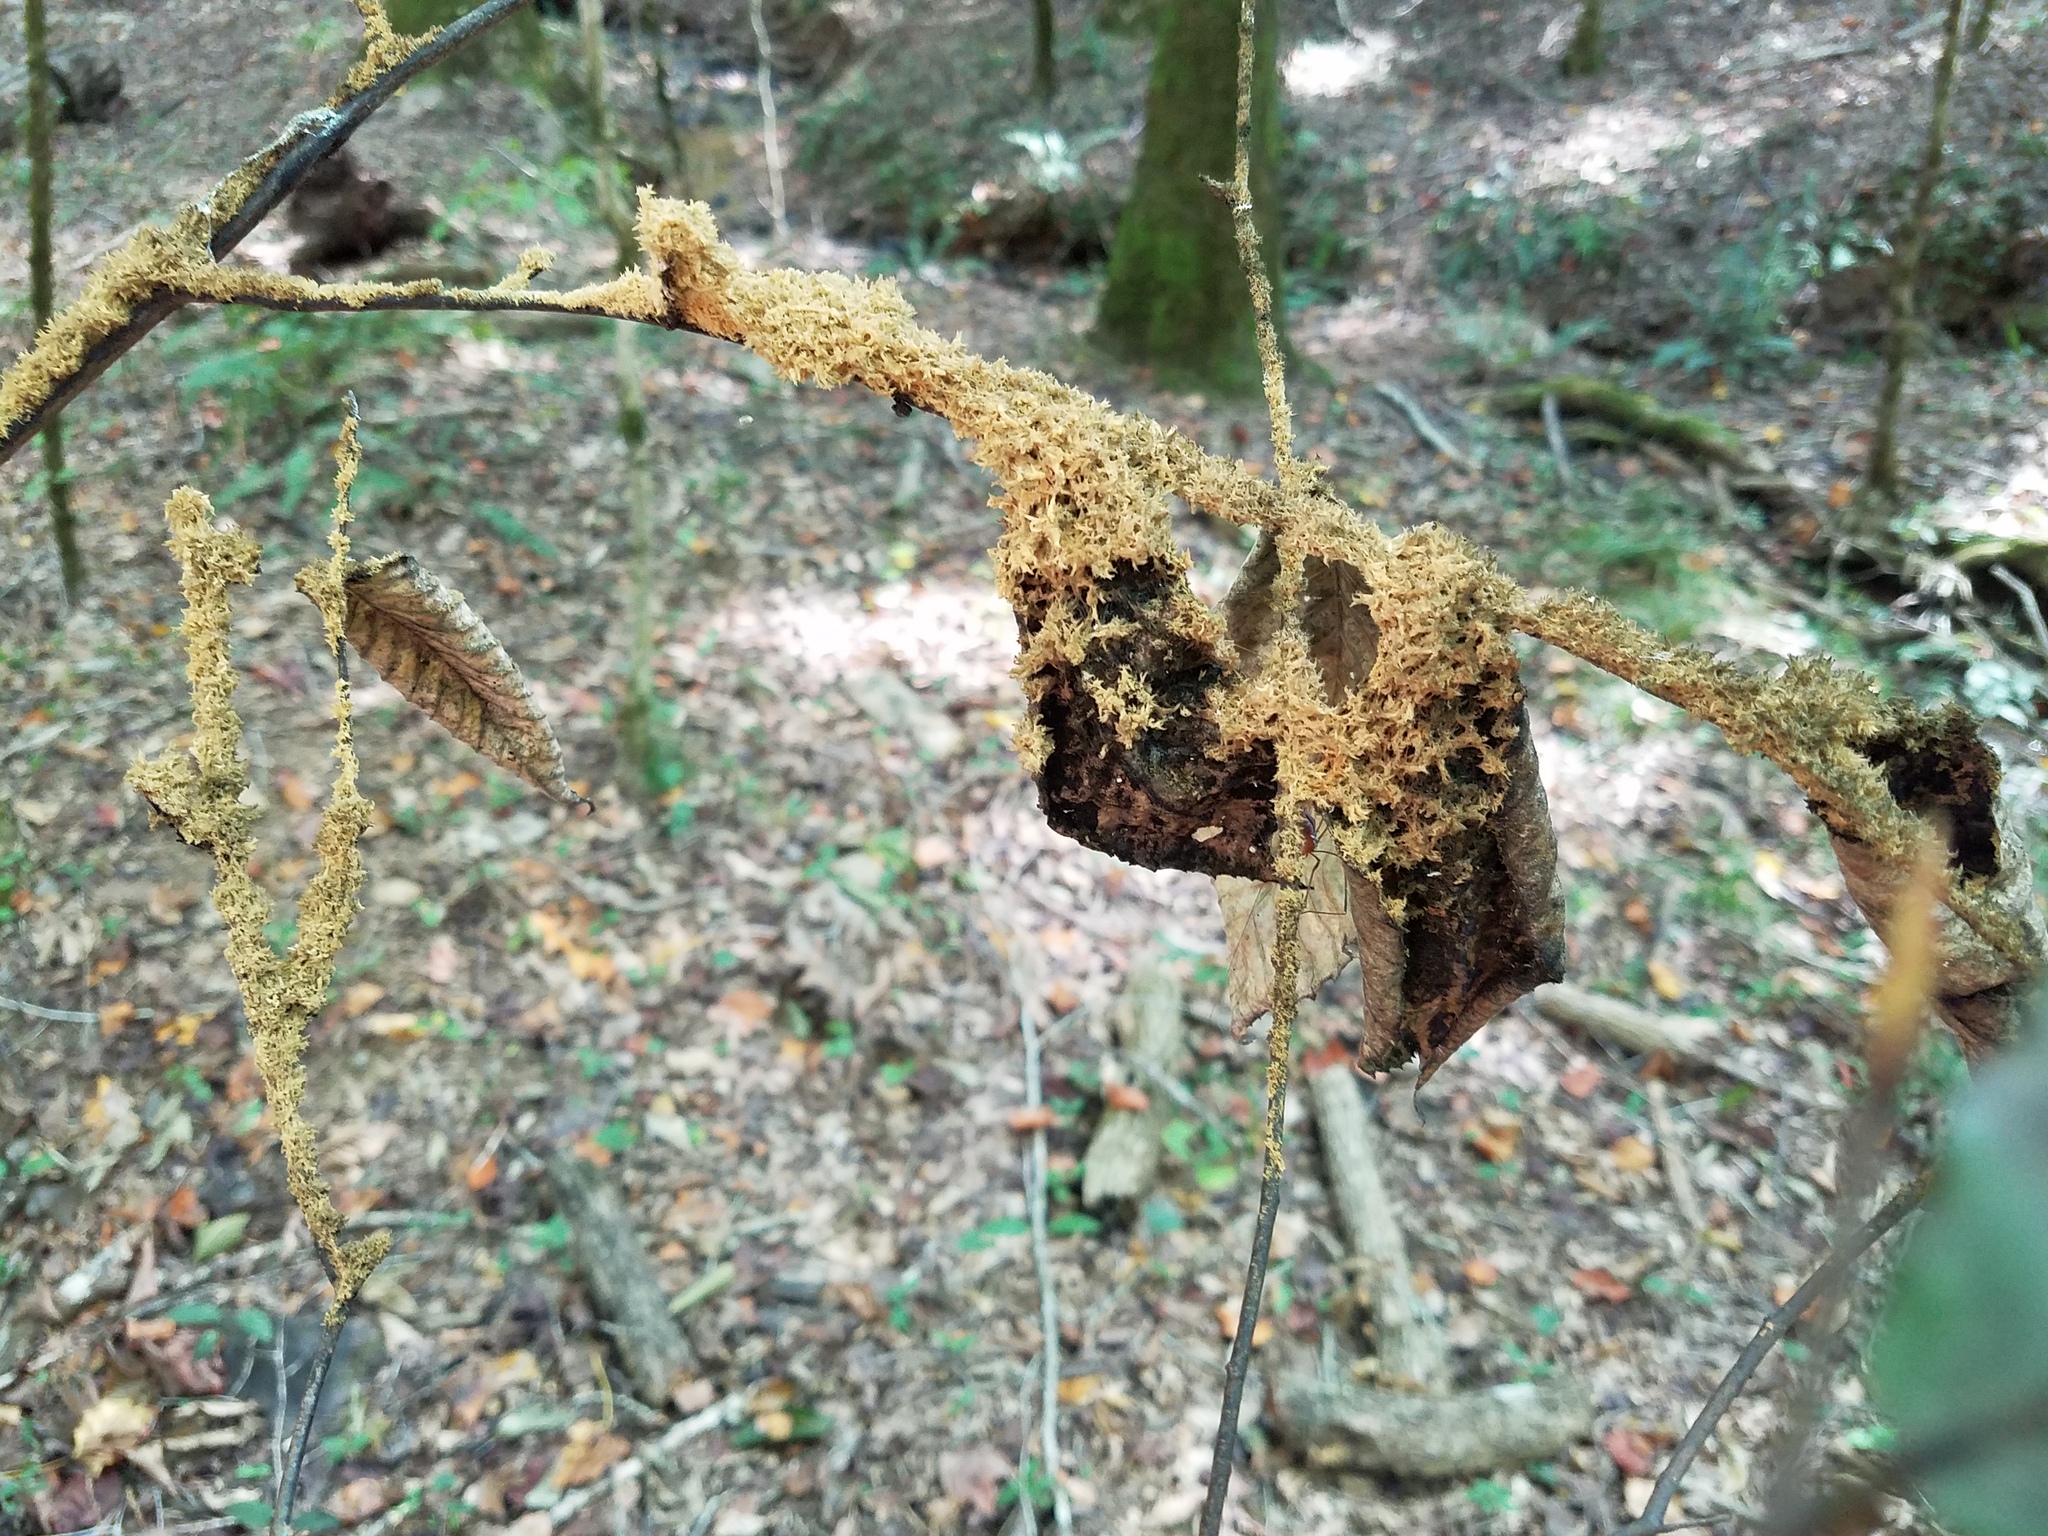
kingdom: Fungi
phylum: Ascomycota
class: Dothideomycetes
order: Capnodiales
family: Capnodiaceae
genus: Scorias
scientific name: Scorias spongiosa
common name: Black sooty mold
